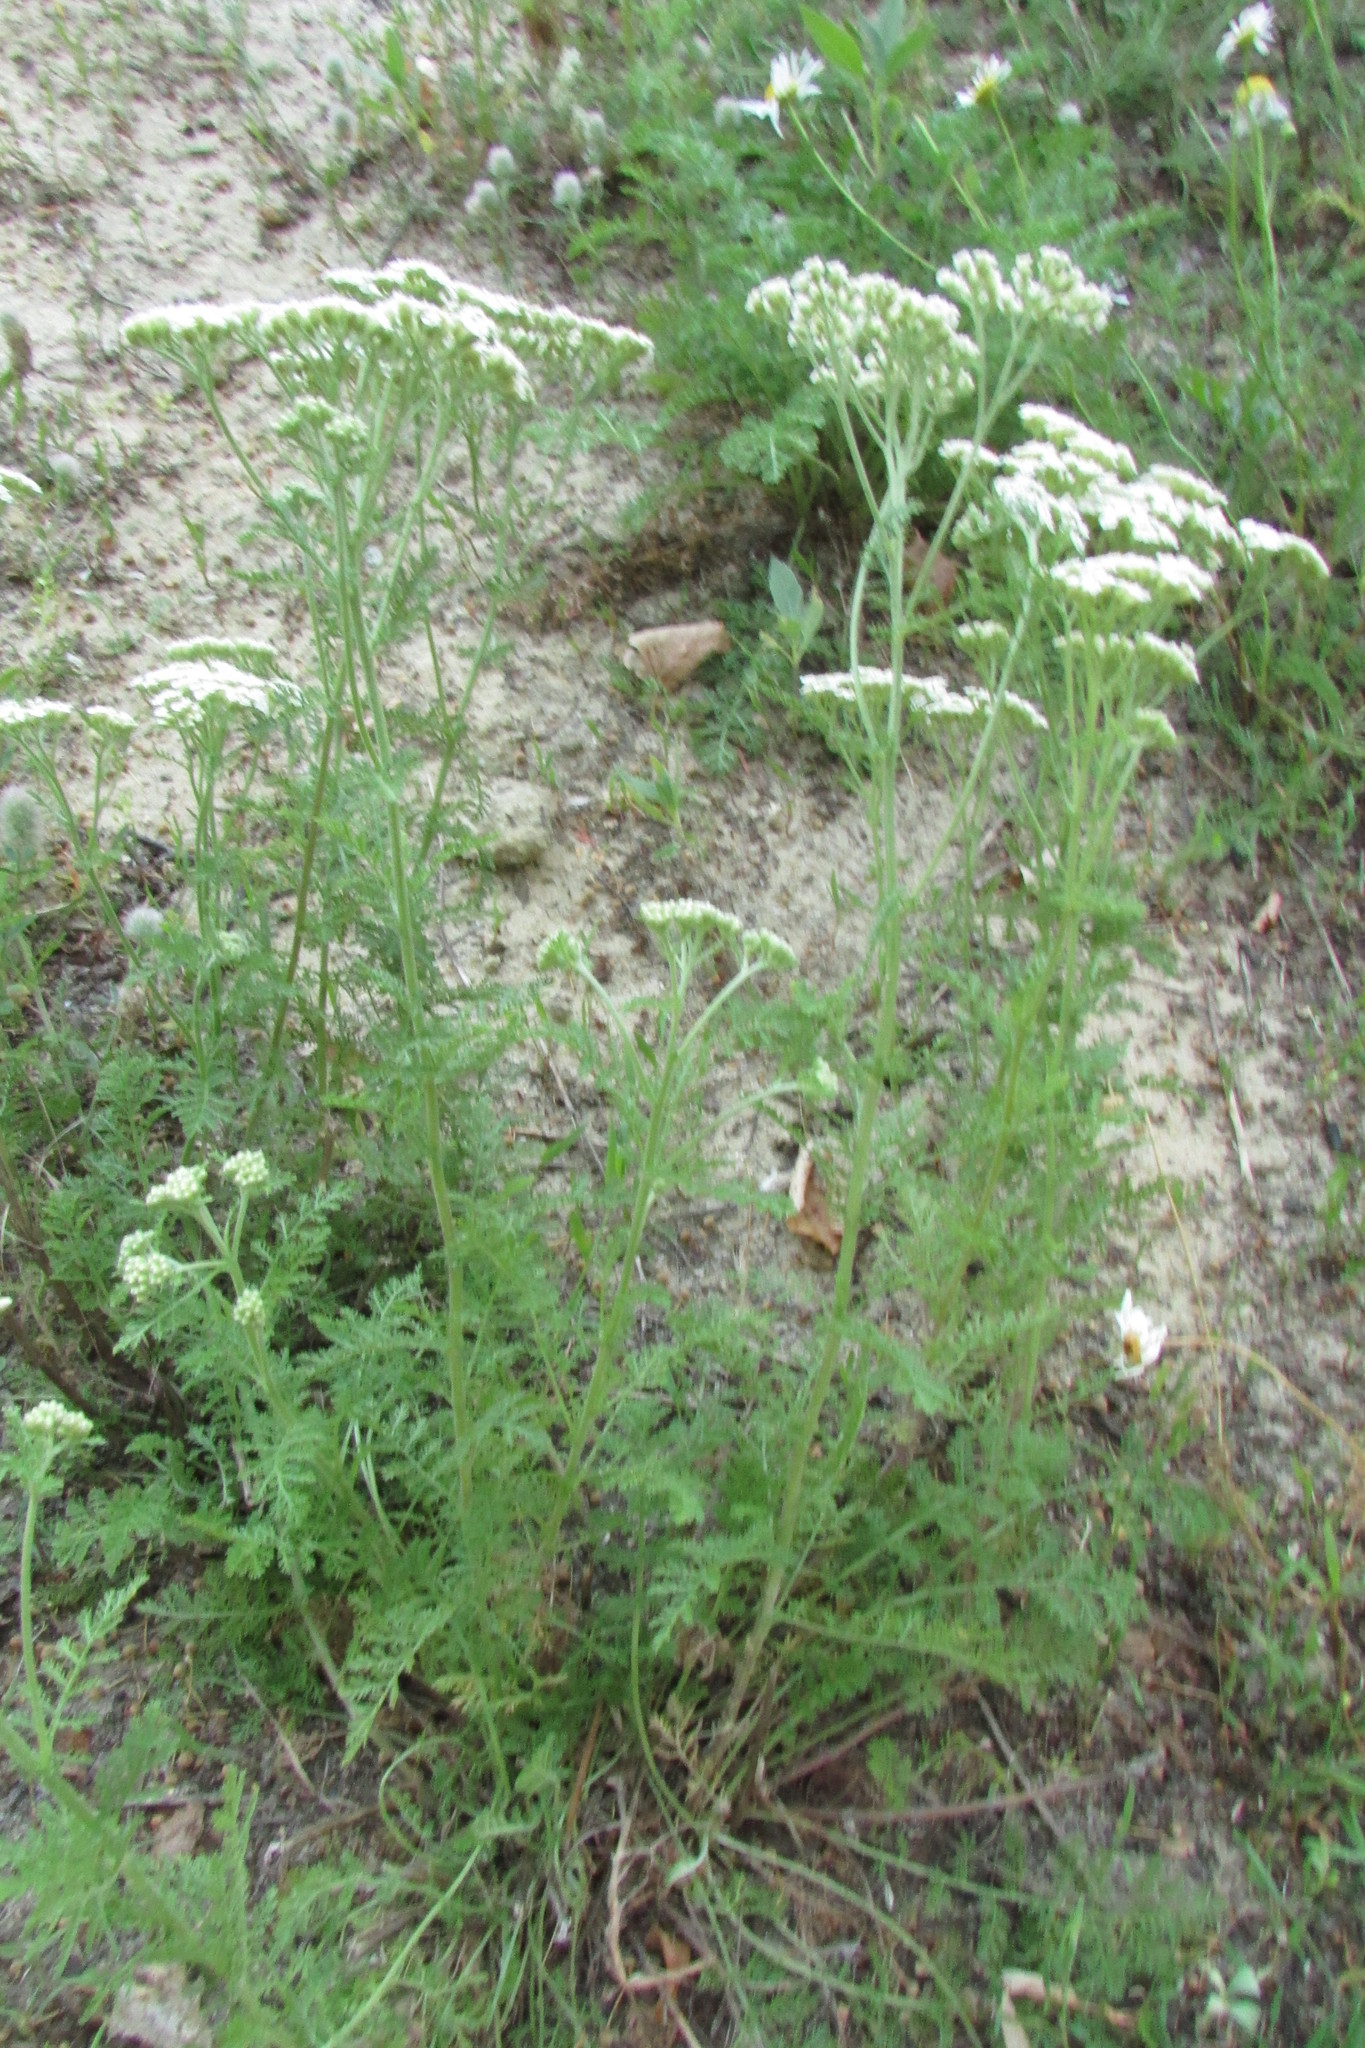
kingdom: Plantae
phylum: Tracheophyta
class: Magnoliopsida
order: Asterales
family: Asteraceae
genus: Achillea
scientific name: Achillea nobilis
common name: Noble yarrow
